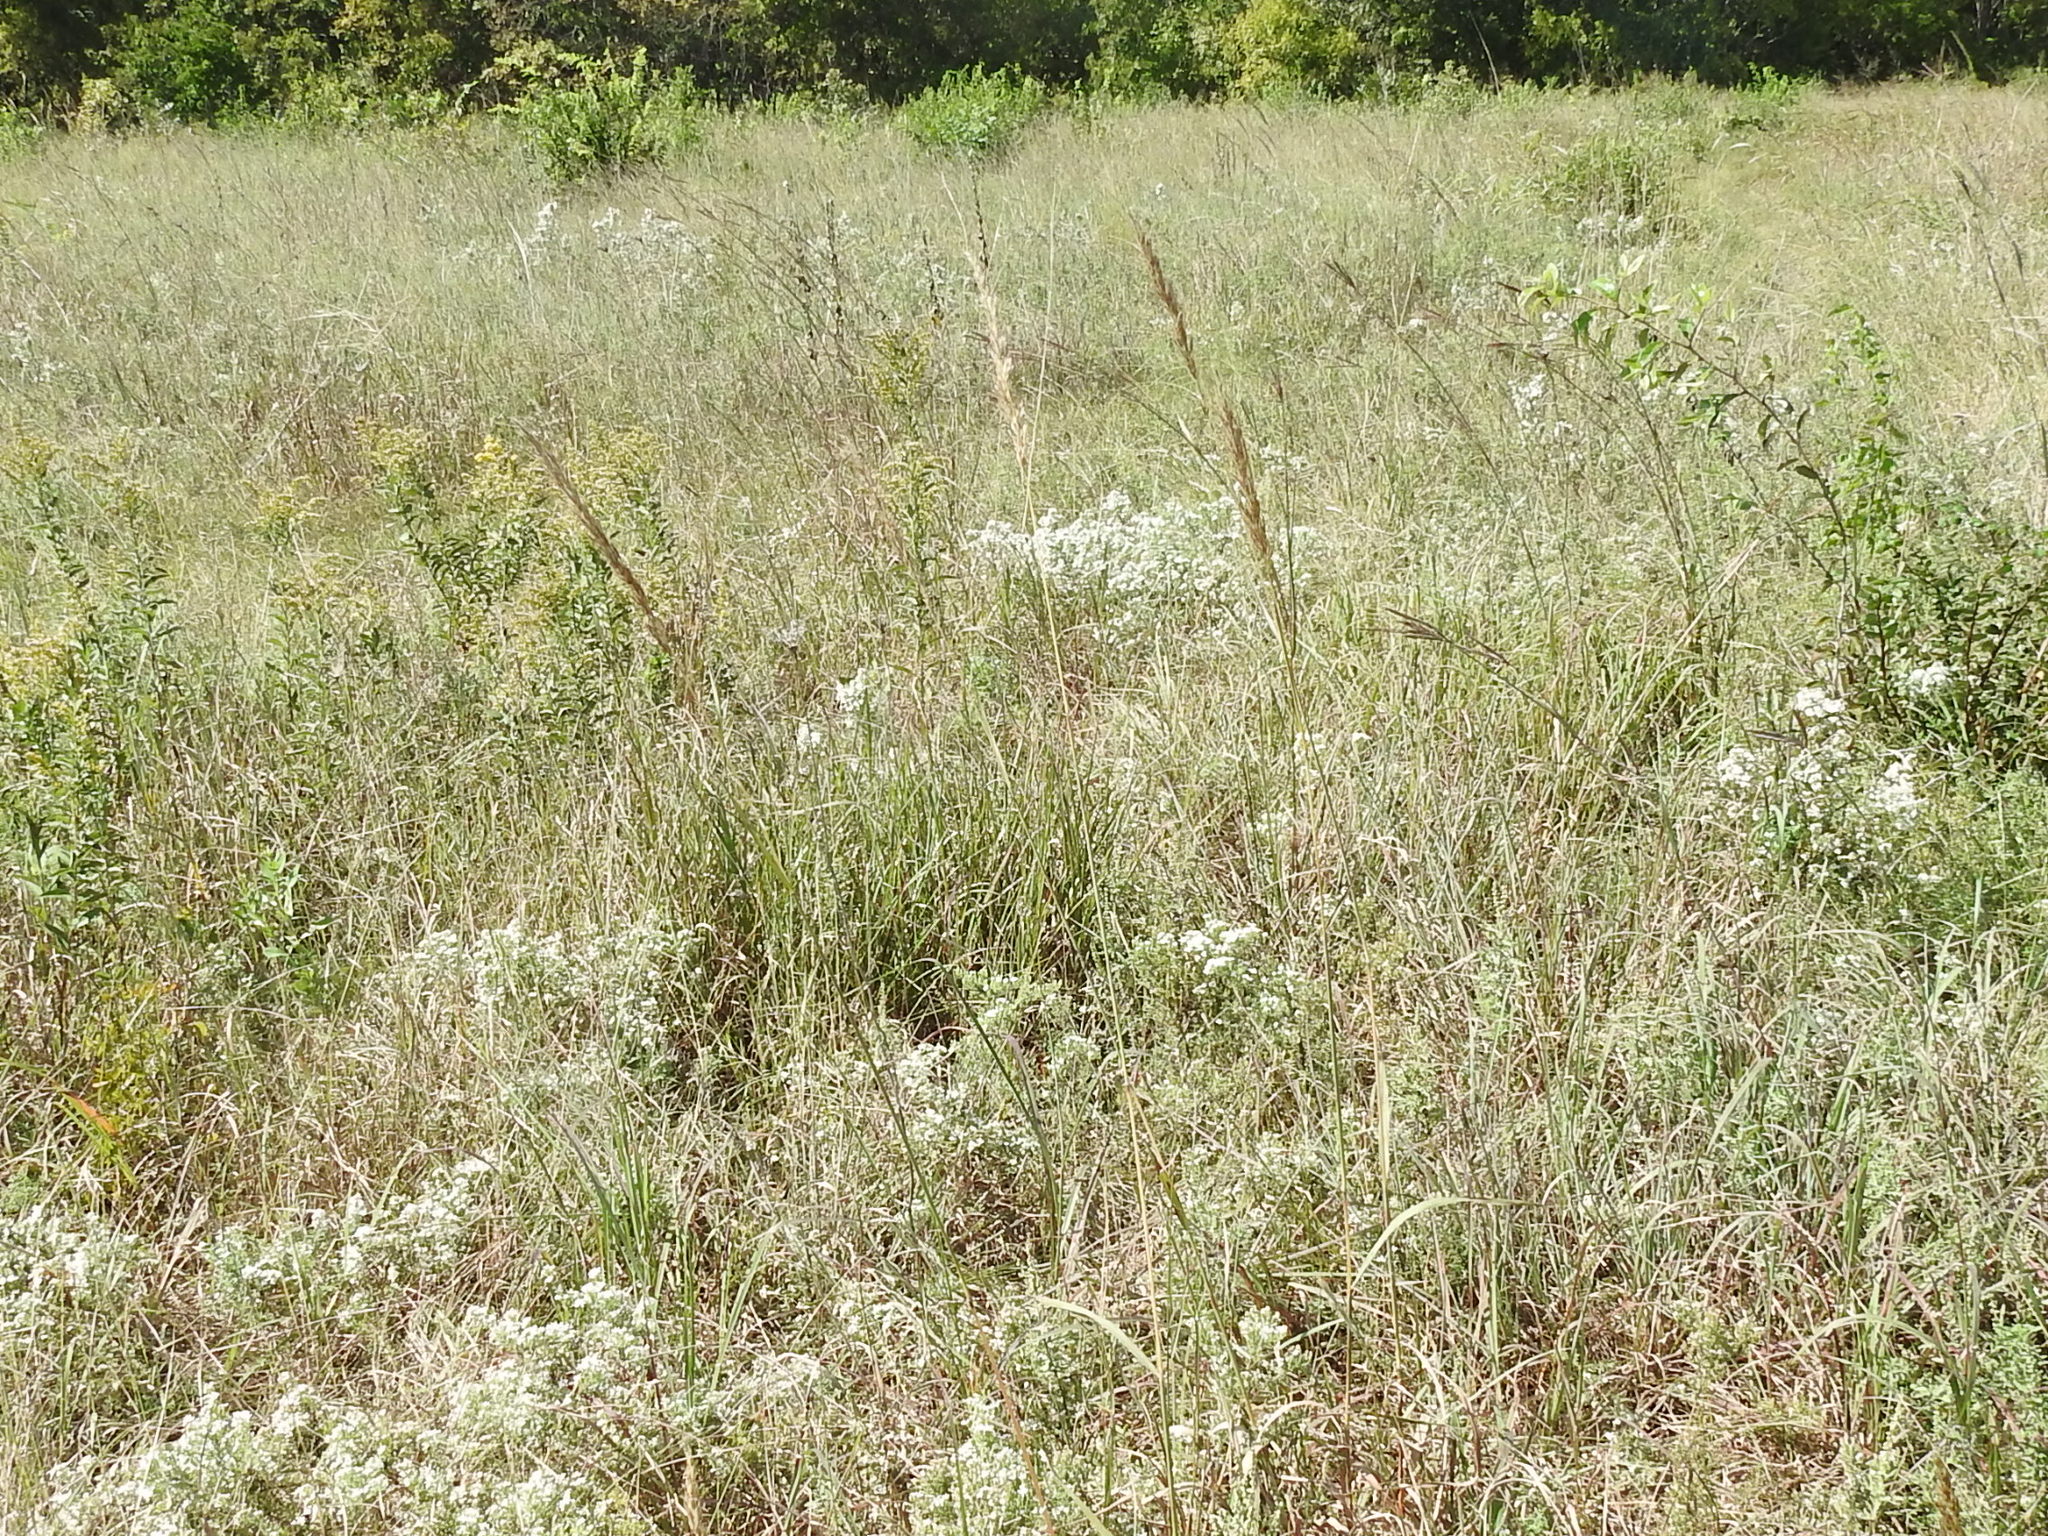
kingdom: Plantae
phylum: Tracheophyta
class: Liliopsida
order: Poales
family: Poaceae
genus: Sorghastrum
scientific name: Sorghastrum nutans
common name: Indian grass
